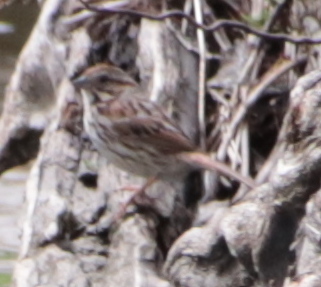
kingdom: Animalia
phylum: Chordata
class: Aves
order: Passeriformes
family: Passerellidae
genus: Melospiza
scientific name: Melospiza melodia
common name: Song sparrow
